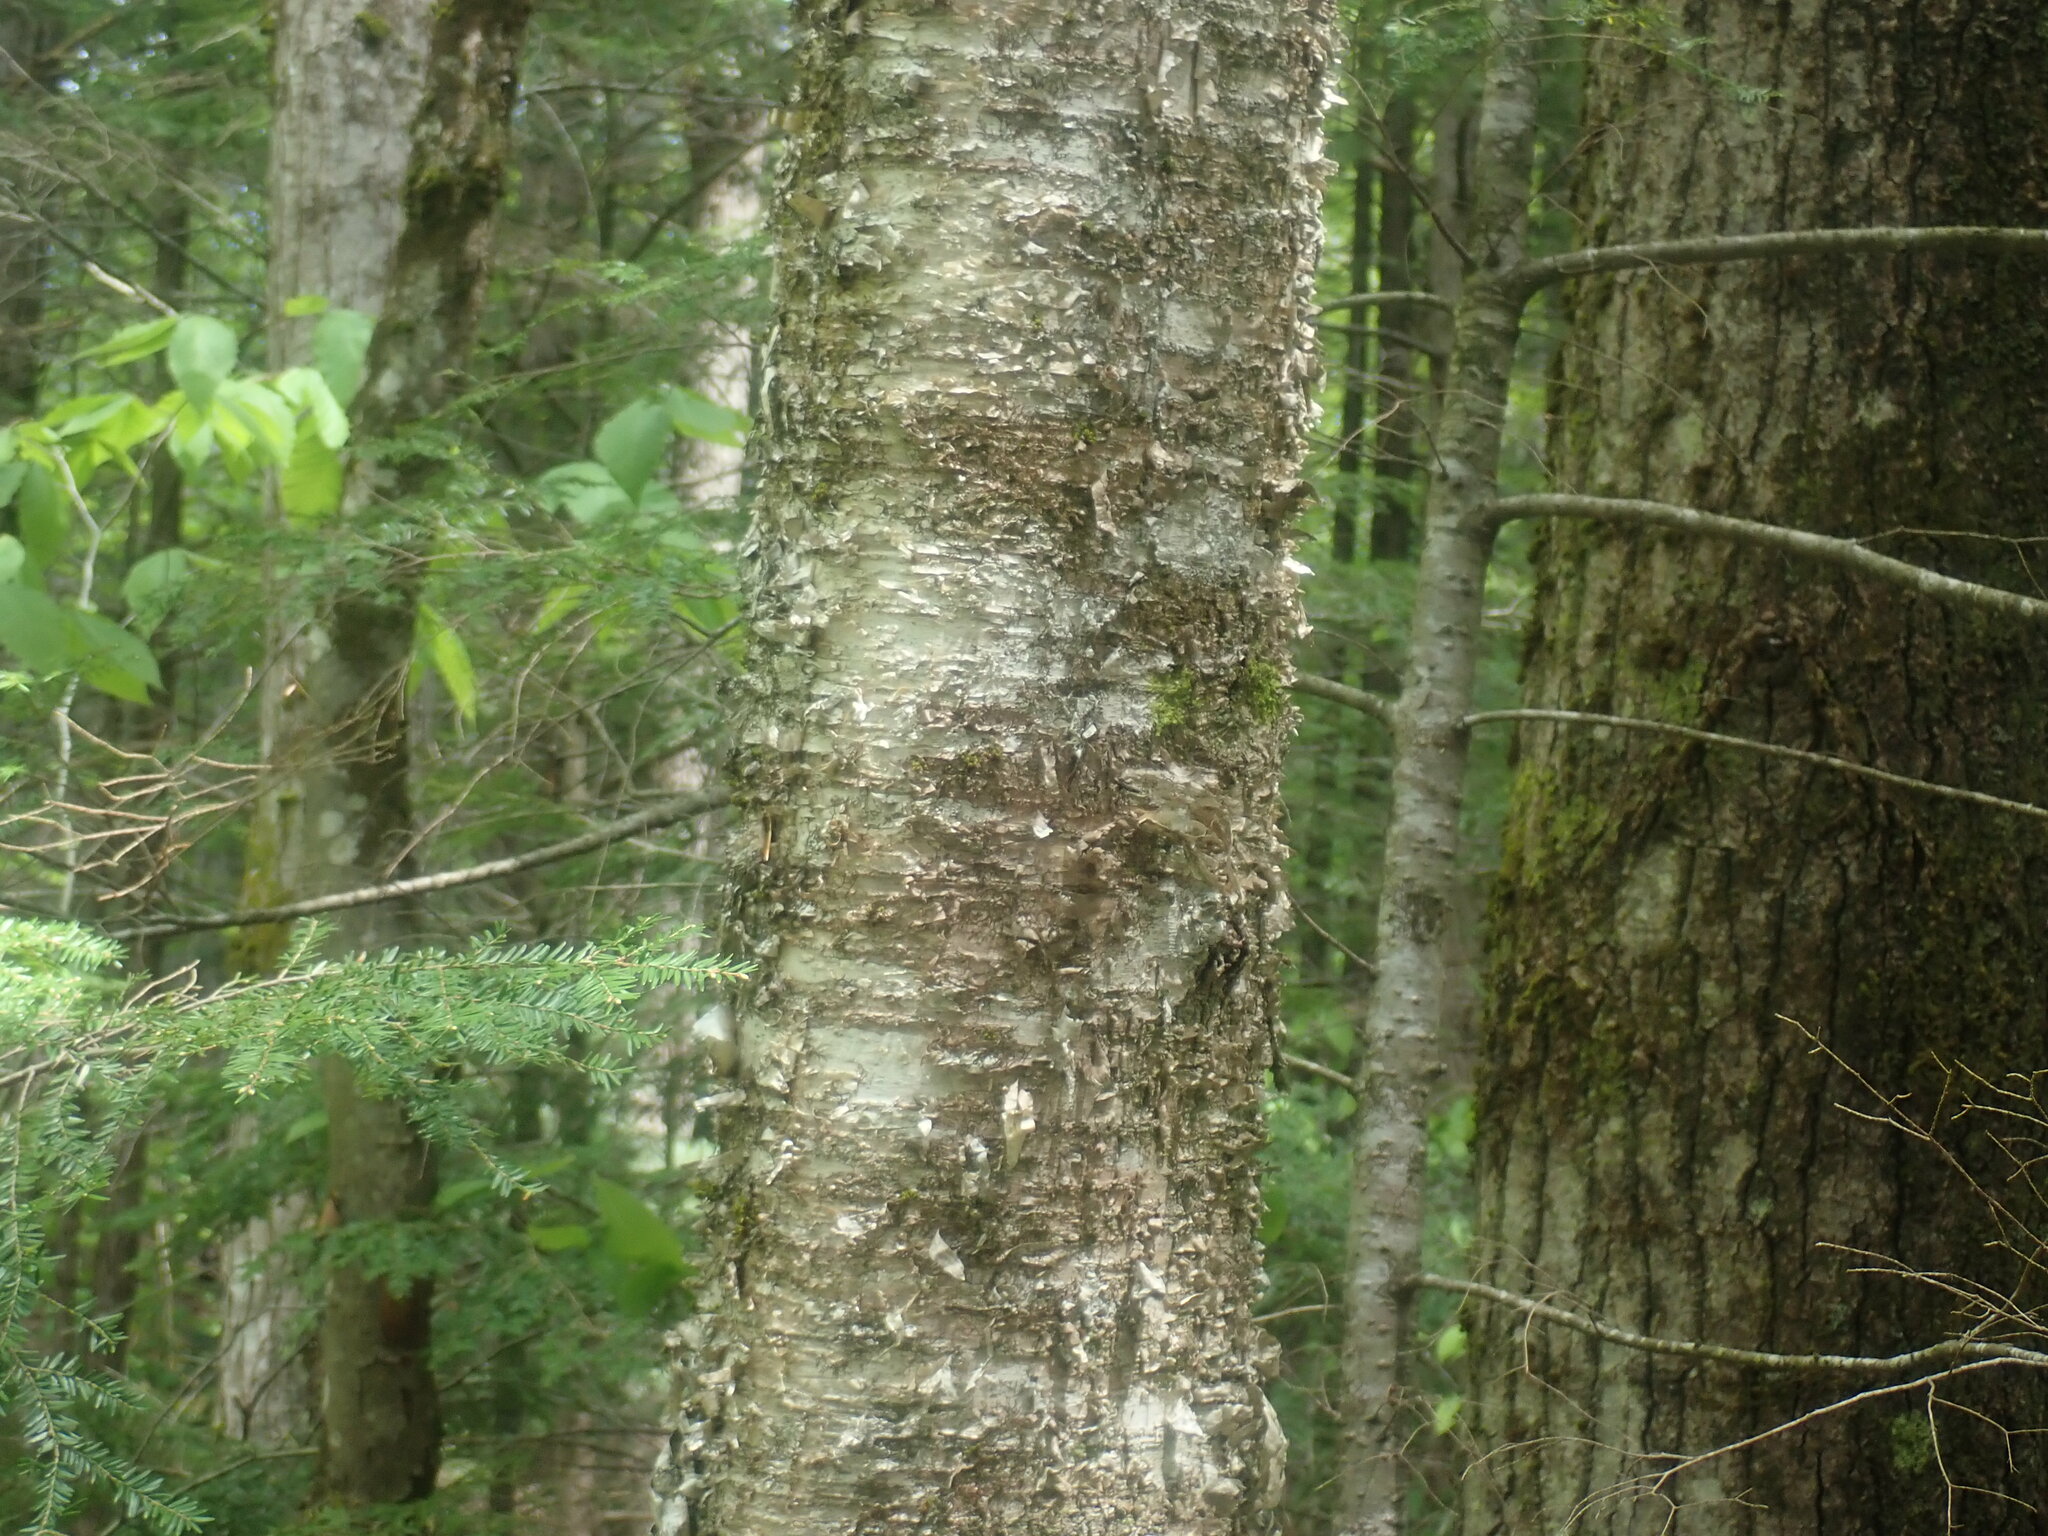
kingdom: Plantae
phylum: Tracheophyta
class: Magnoliopsida
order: Fagales
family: Betulaceae
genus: Betula
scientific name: Betula alleghaniensis
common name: Yellow birch
